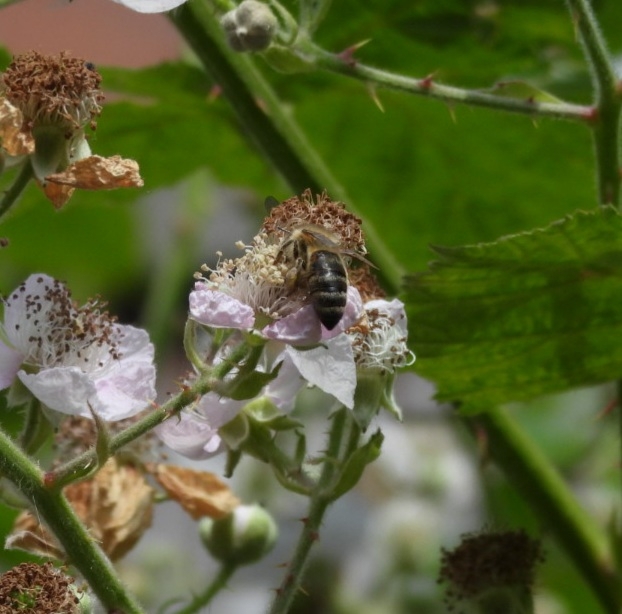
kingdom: Animalia
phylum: Arthropoda
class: Insecta
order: Hymenoptera
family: Apidae
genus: Apis
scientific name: Apis mellifera
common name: Honey bee
